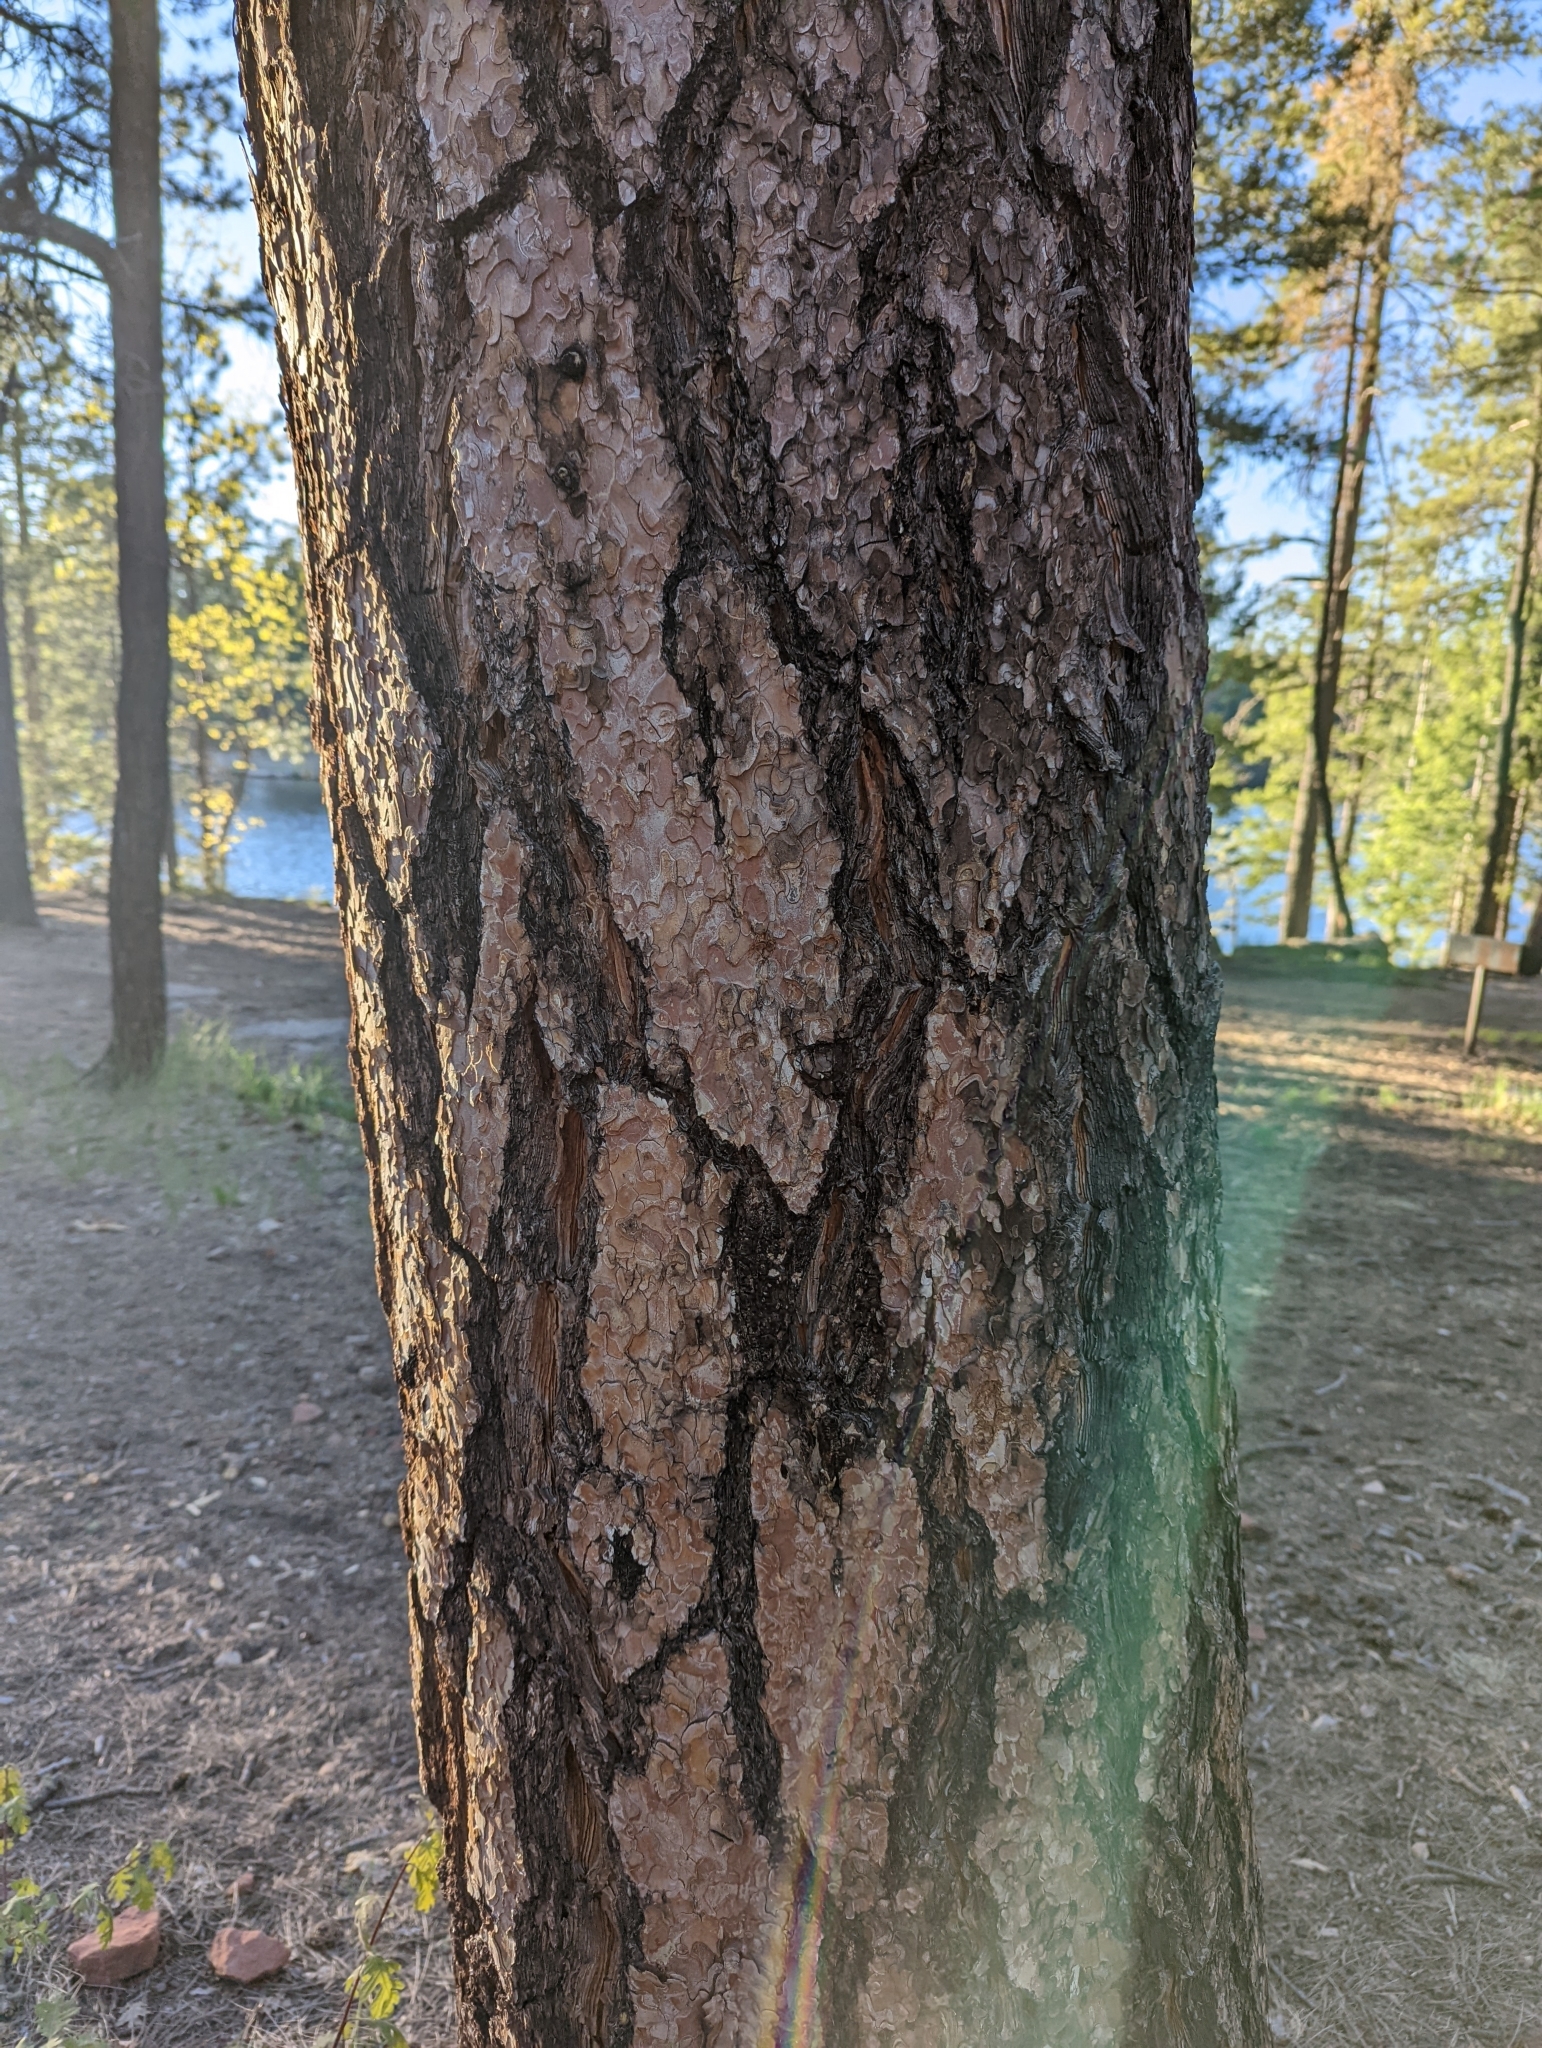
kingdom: Plantae
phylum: Tracheophyta
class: Pinopsida
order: Pinales
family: Pinaceae
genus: Pinus
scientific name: Pinus ponderosa
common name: Western yellow-pine
